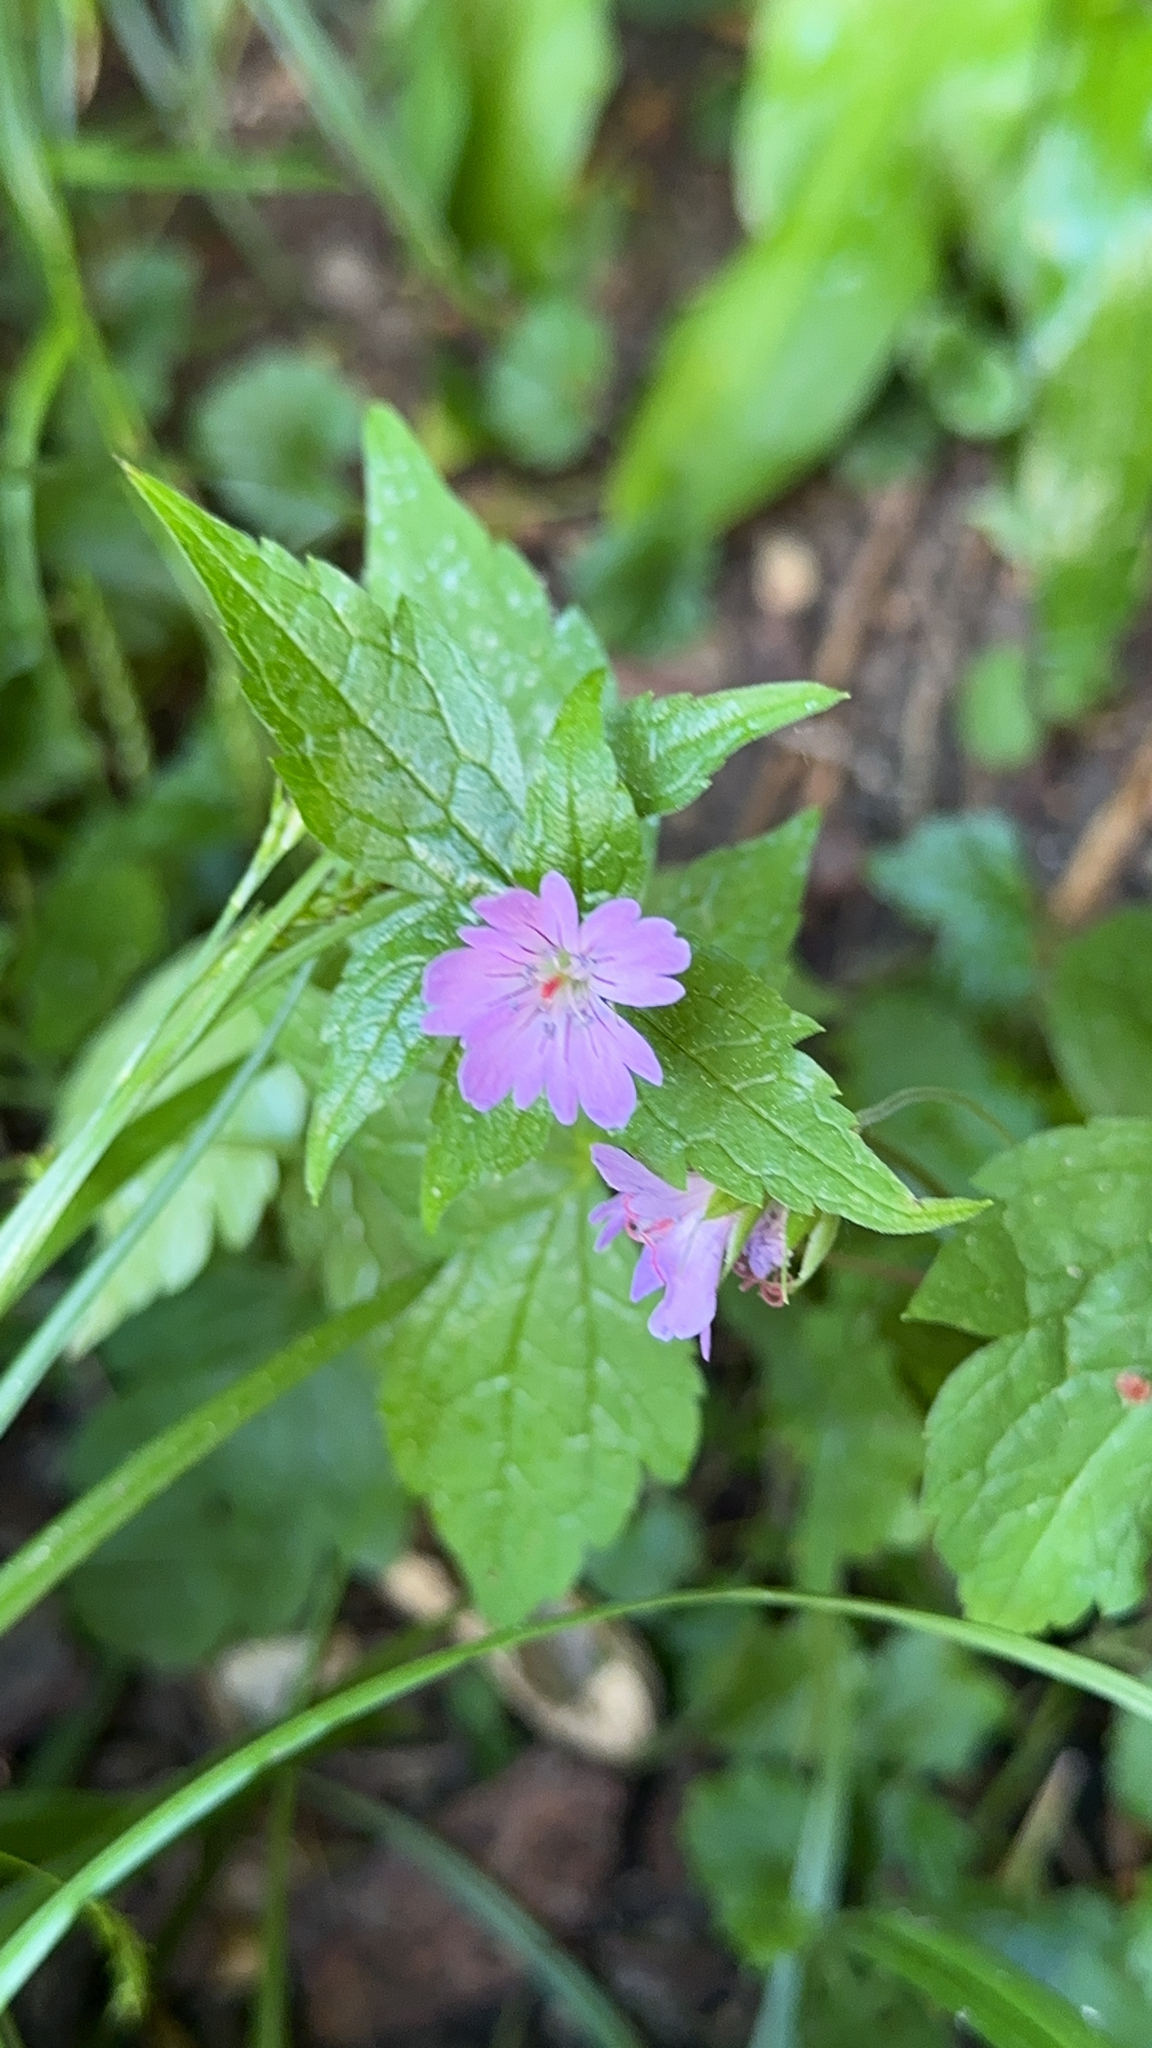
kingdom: Plantae
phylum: Tracheophyta
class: Magnoliopsida
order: Geraniales
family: Geraniaceae
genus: Geranium
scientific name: Geranium nodosum
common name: Knotted crane's-bill
